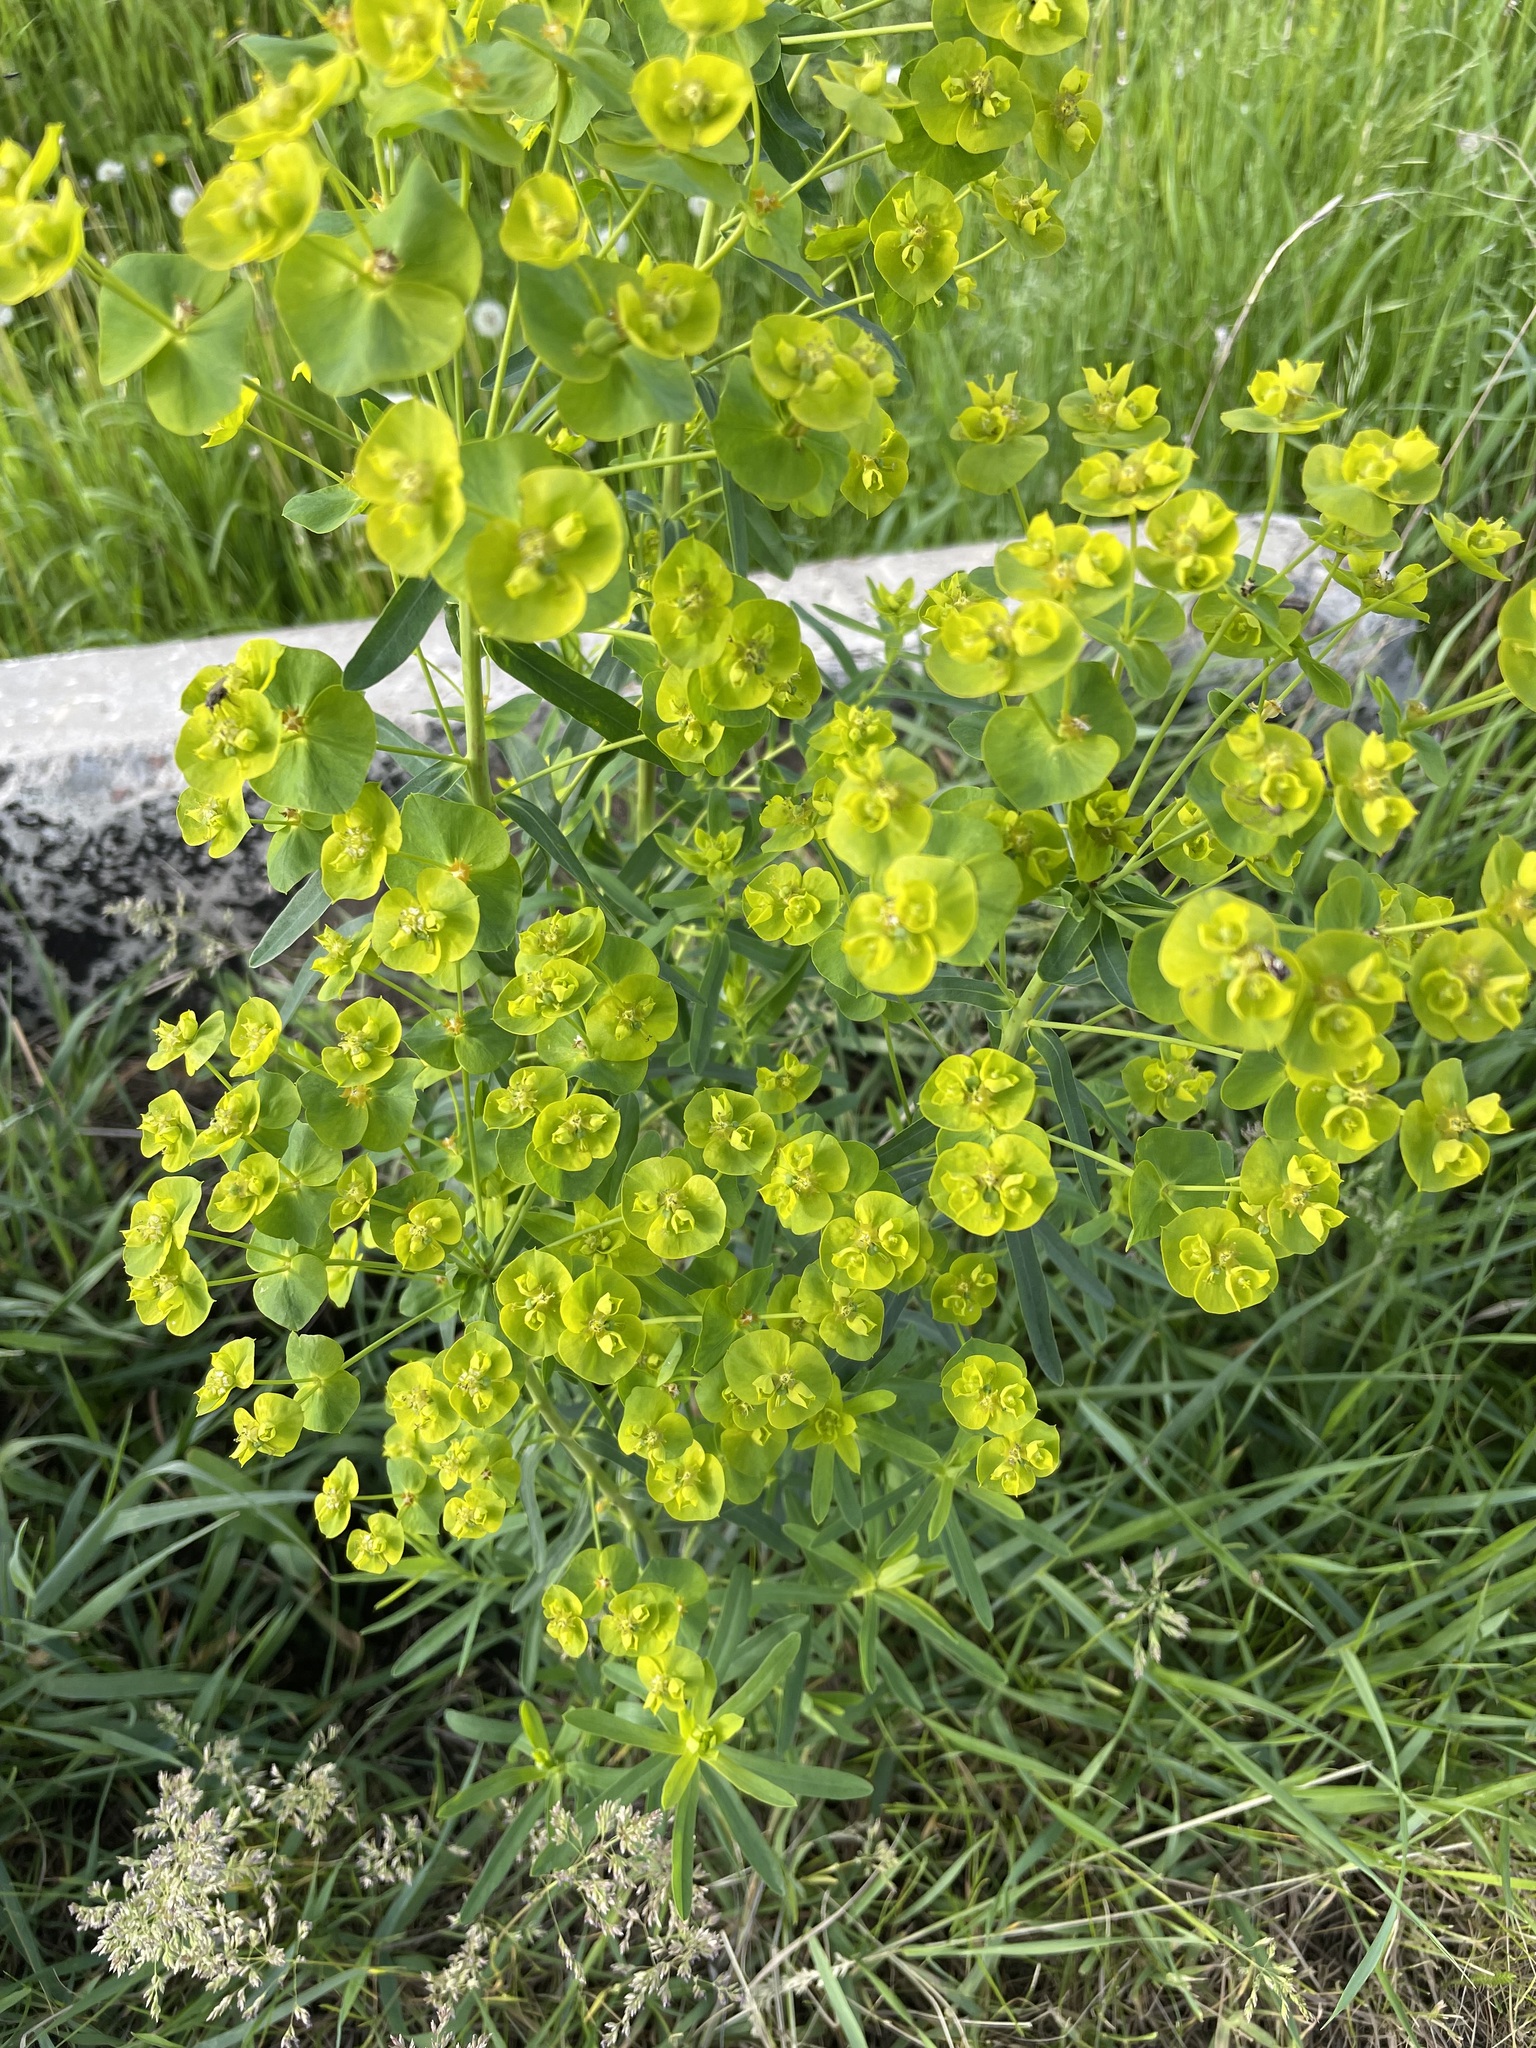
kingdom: Plantae
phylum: Tracheophyta
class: Magnoliopsida
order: Malpighiales
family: Euphorbiaceae
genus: Euphorbia
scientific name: Euphorbia virgata
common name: Leafy spurge
